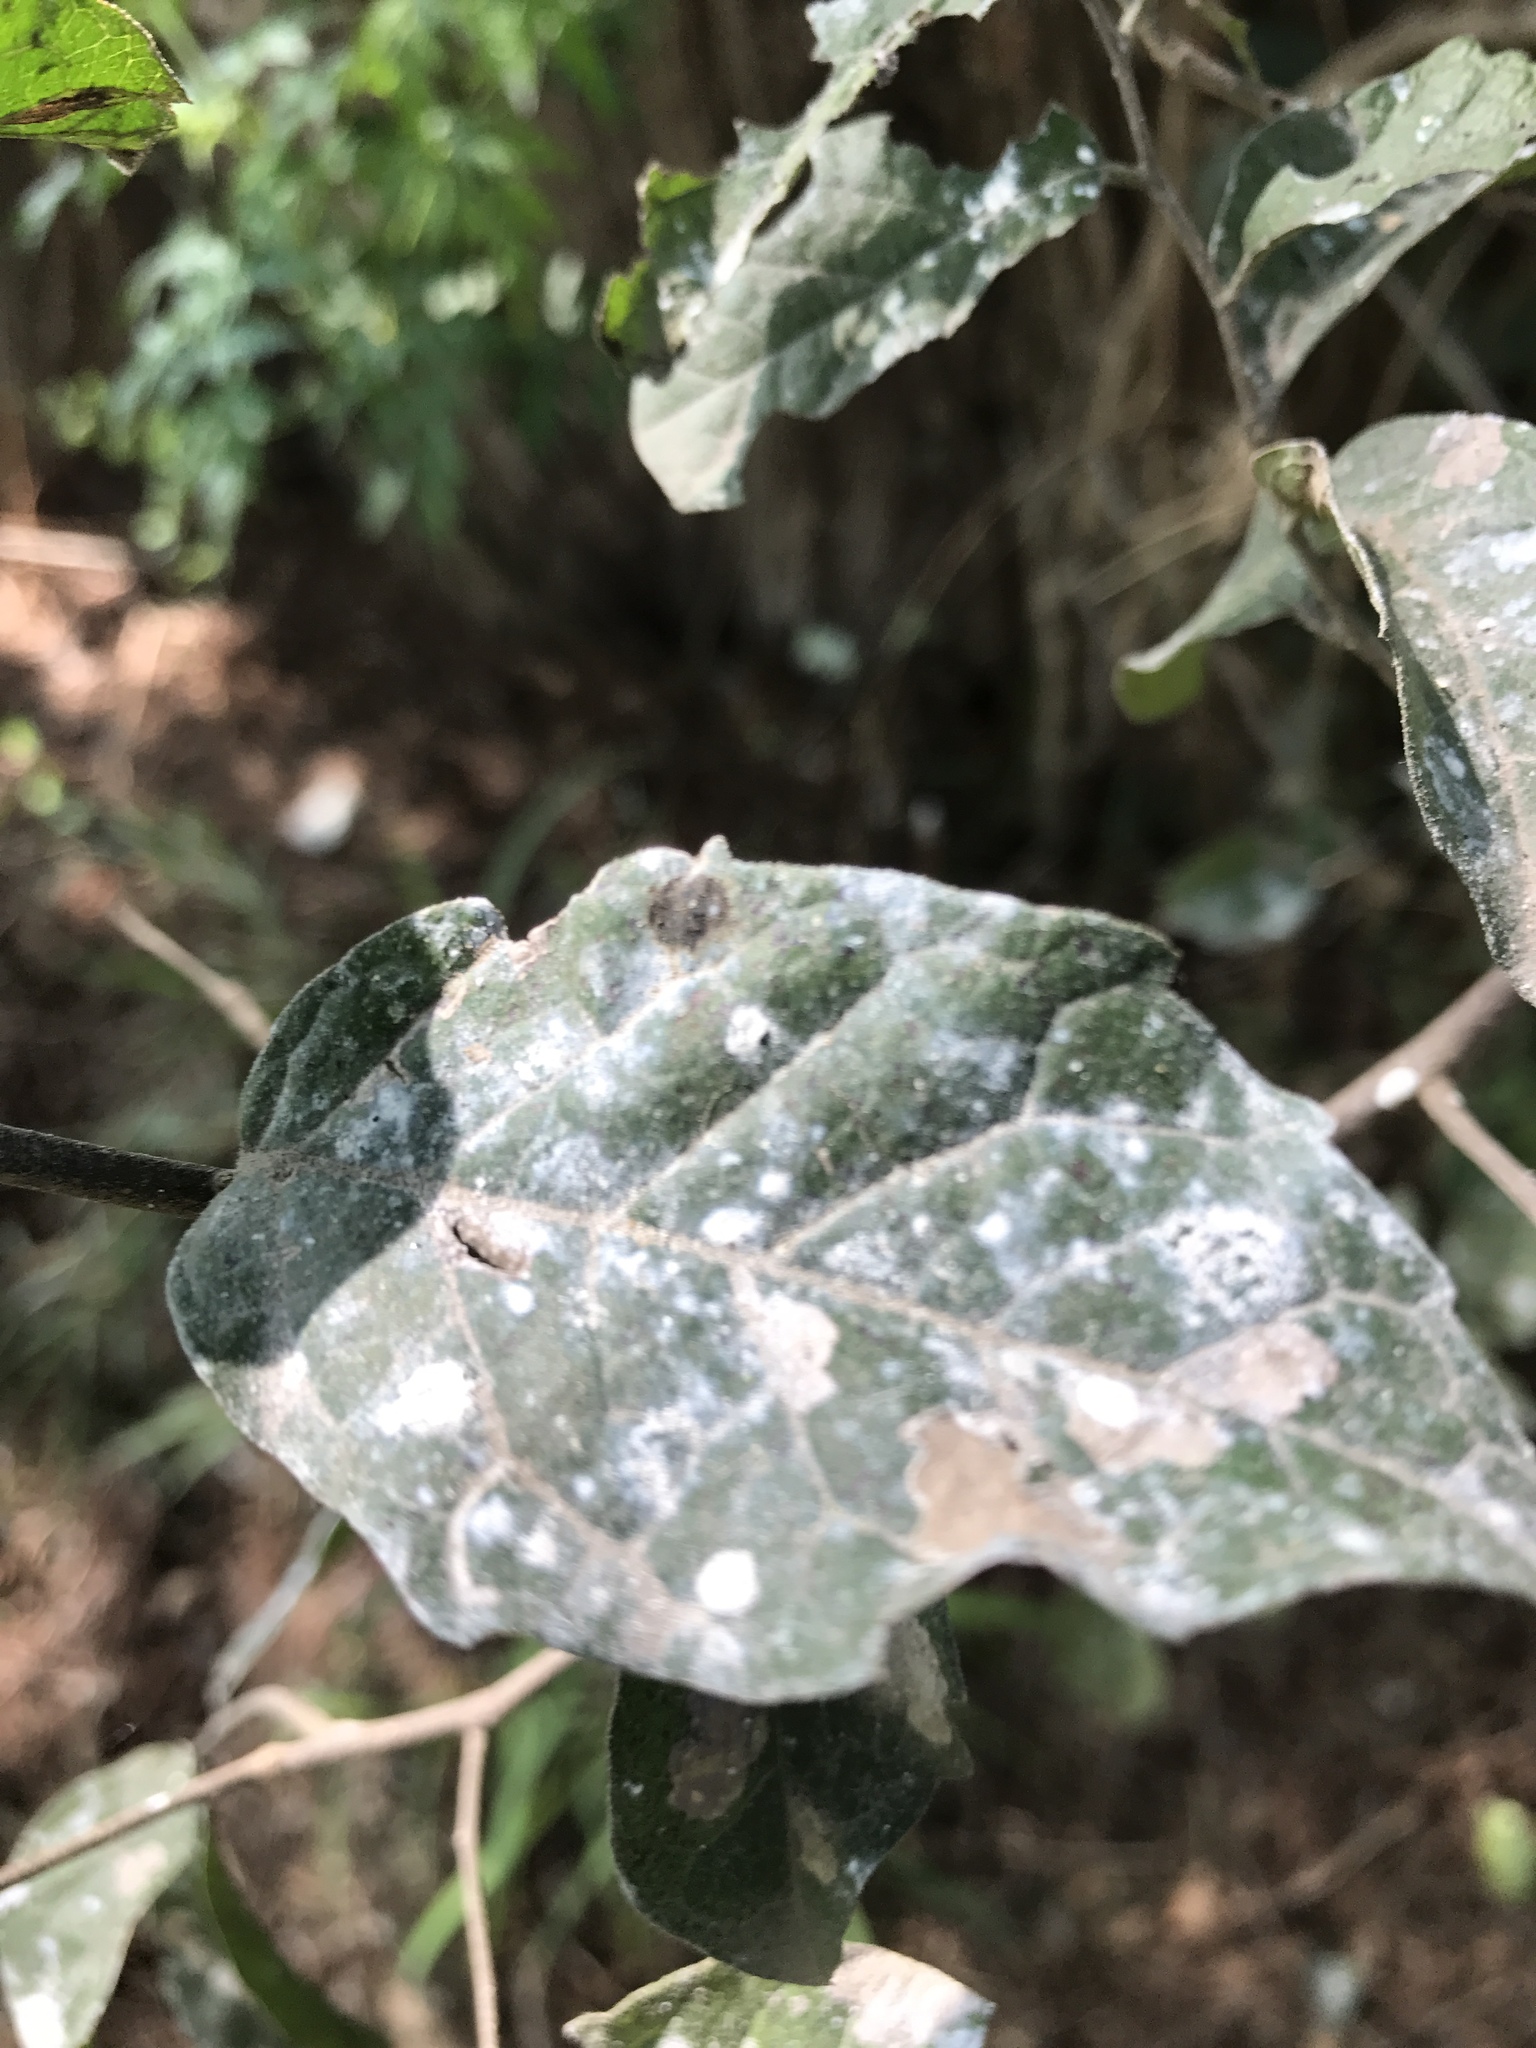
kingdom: Plantae
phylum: Tracheophyta
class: Magnoliopsida
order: Boraginales
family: Ehretiaceae
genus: Ehretia
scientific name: Ehretia anacua
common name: Sugarberry
